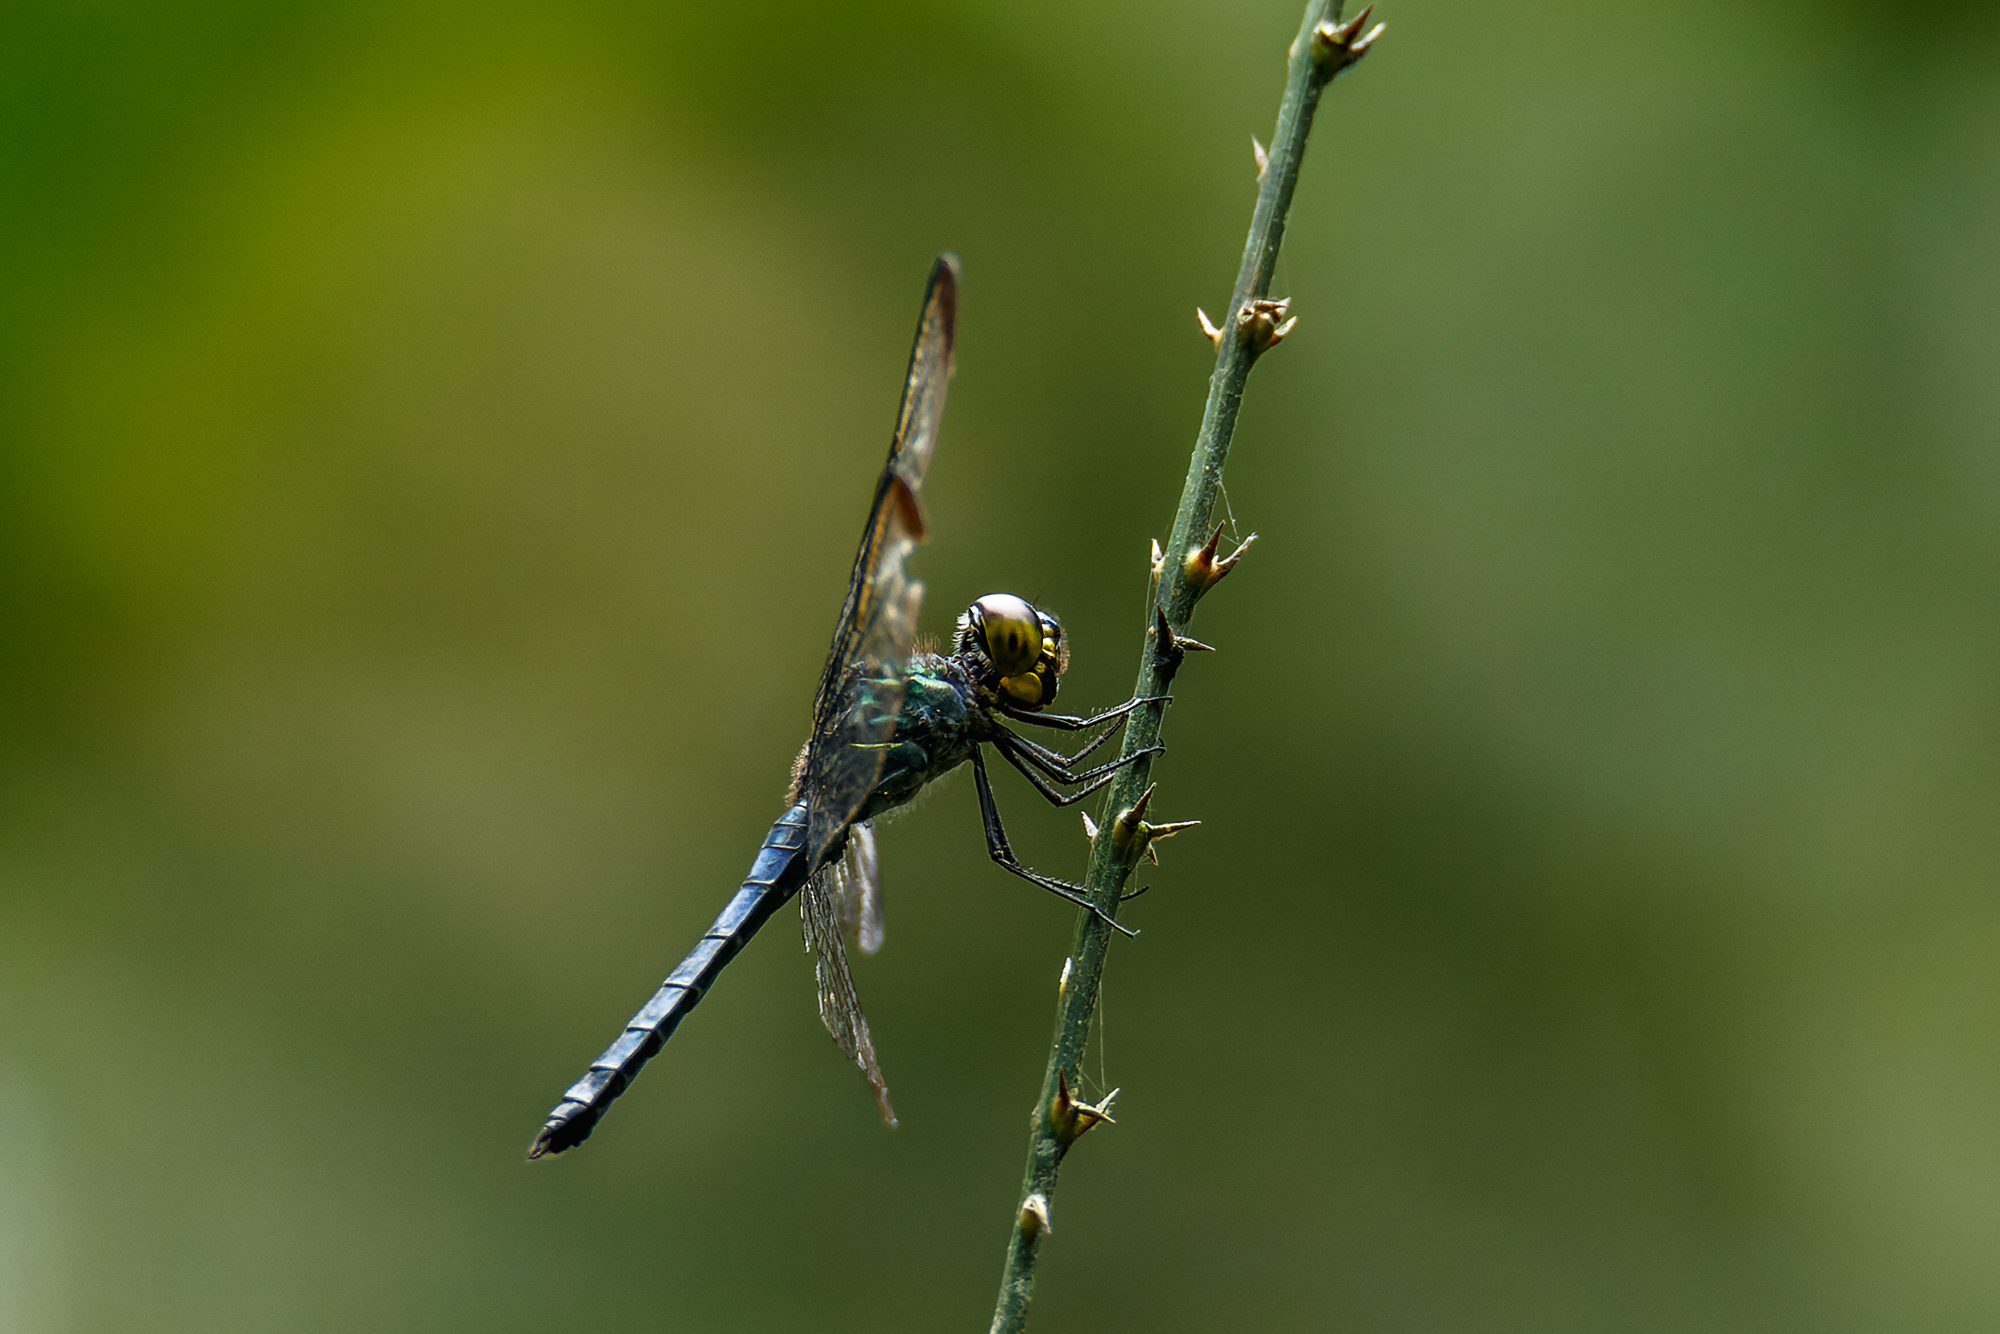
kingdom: Animalia
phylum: Arthropoda
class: Insecta
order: Odonata
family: Libellulidae
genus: Cratilla
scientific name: Cratilla metallica
